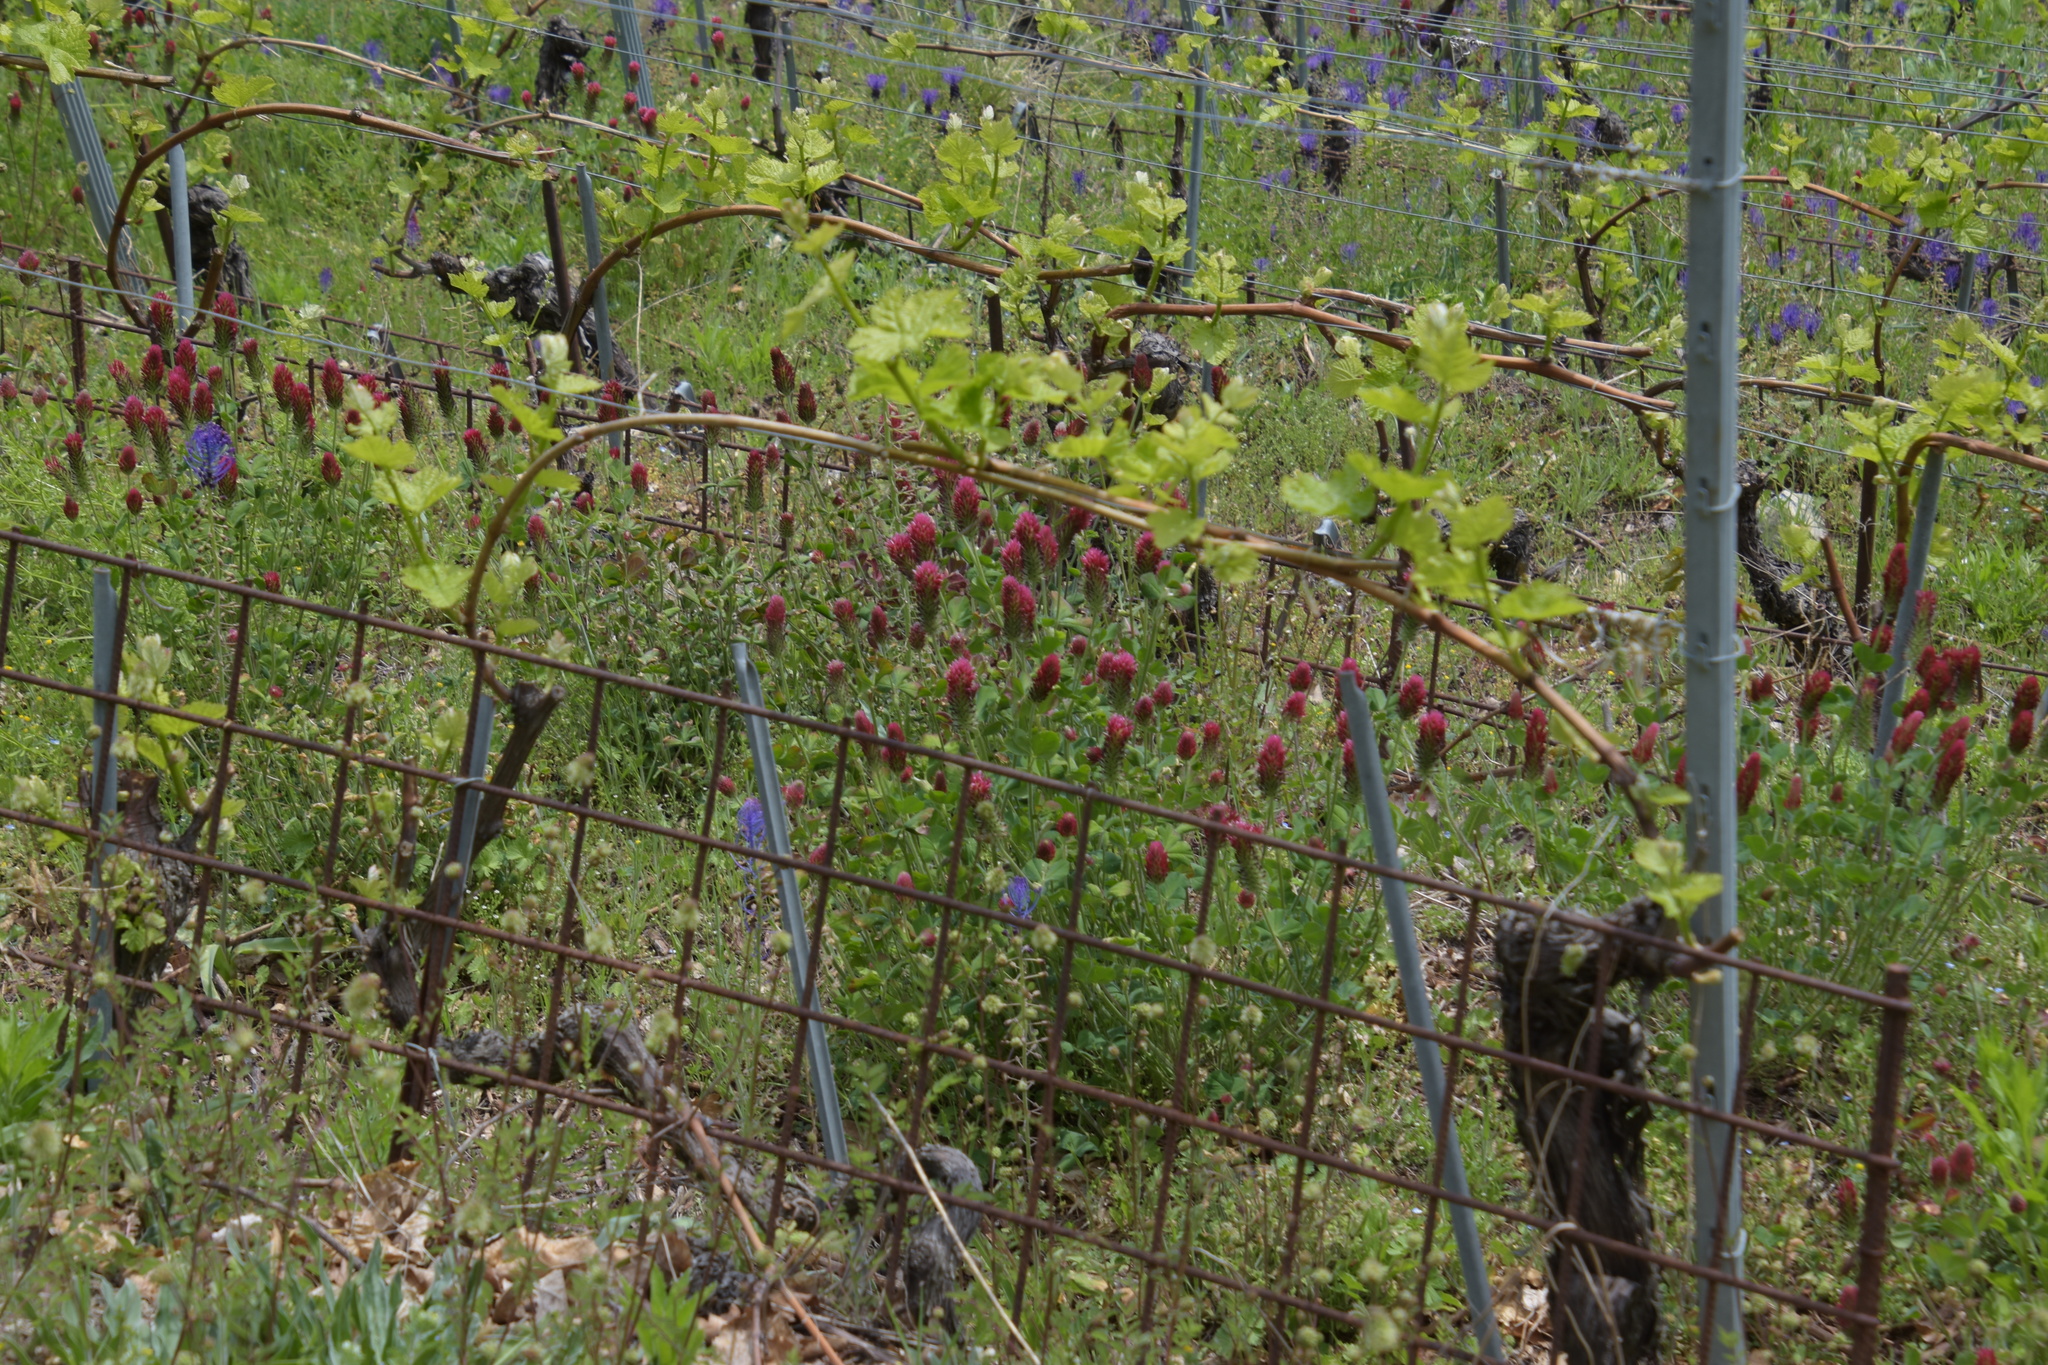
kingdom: Plantae
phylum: Tracheophyta
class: Magnoliopsida
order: Fabales
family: Fabaceae
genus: Trifolium
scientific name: Trifolium incarnatum
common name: Crimson clover
